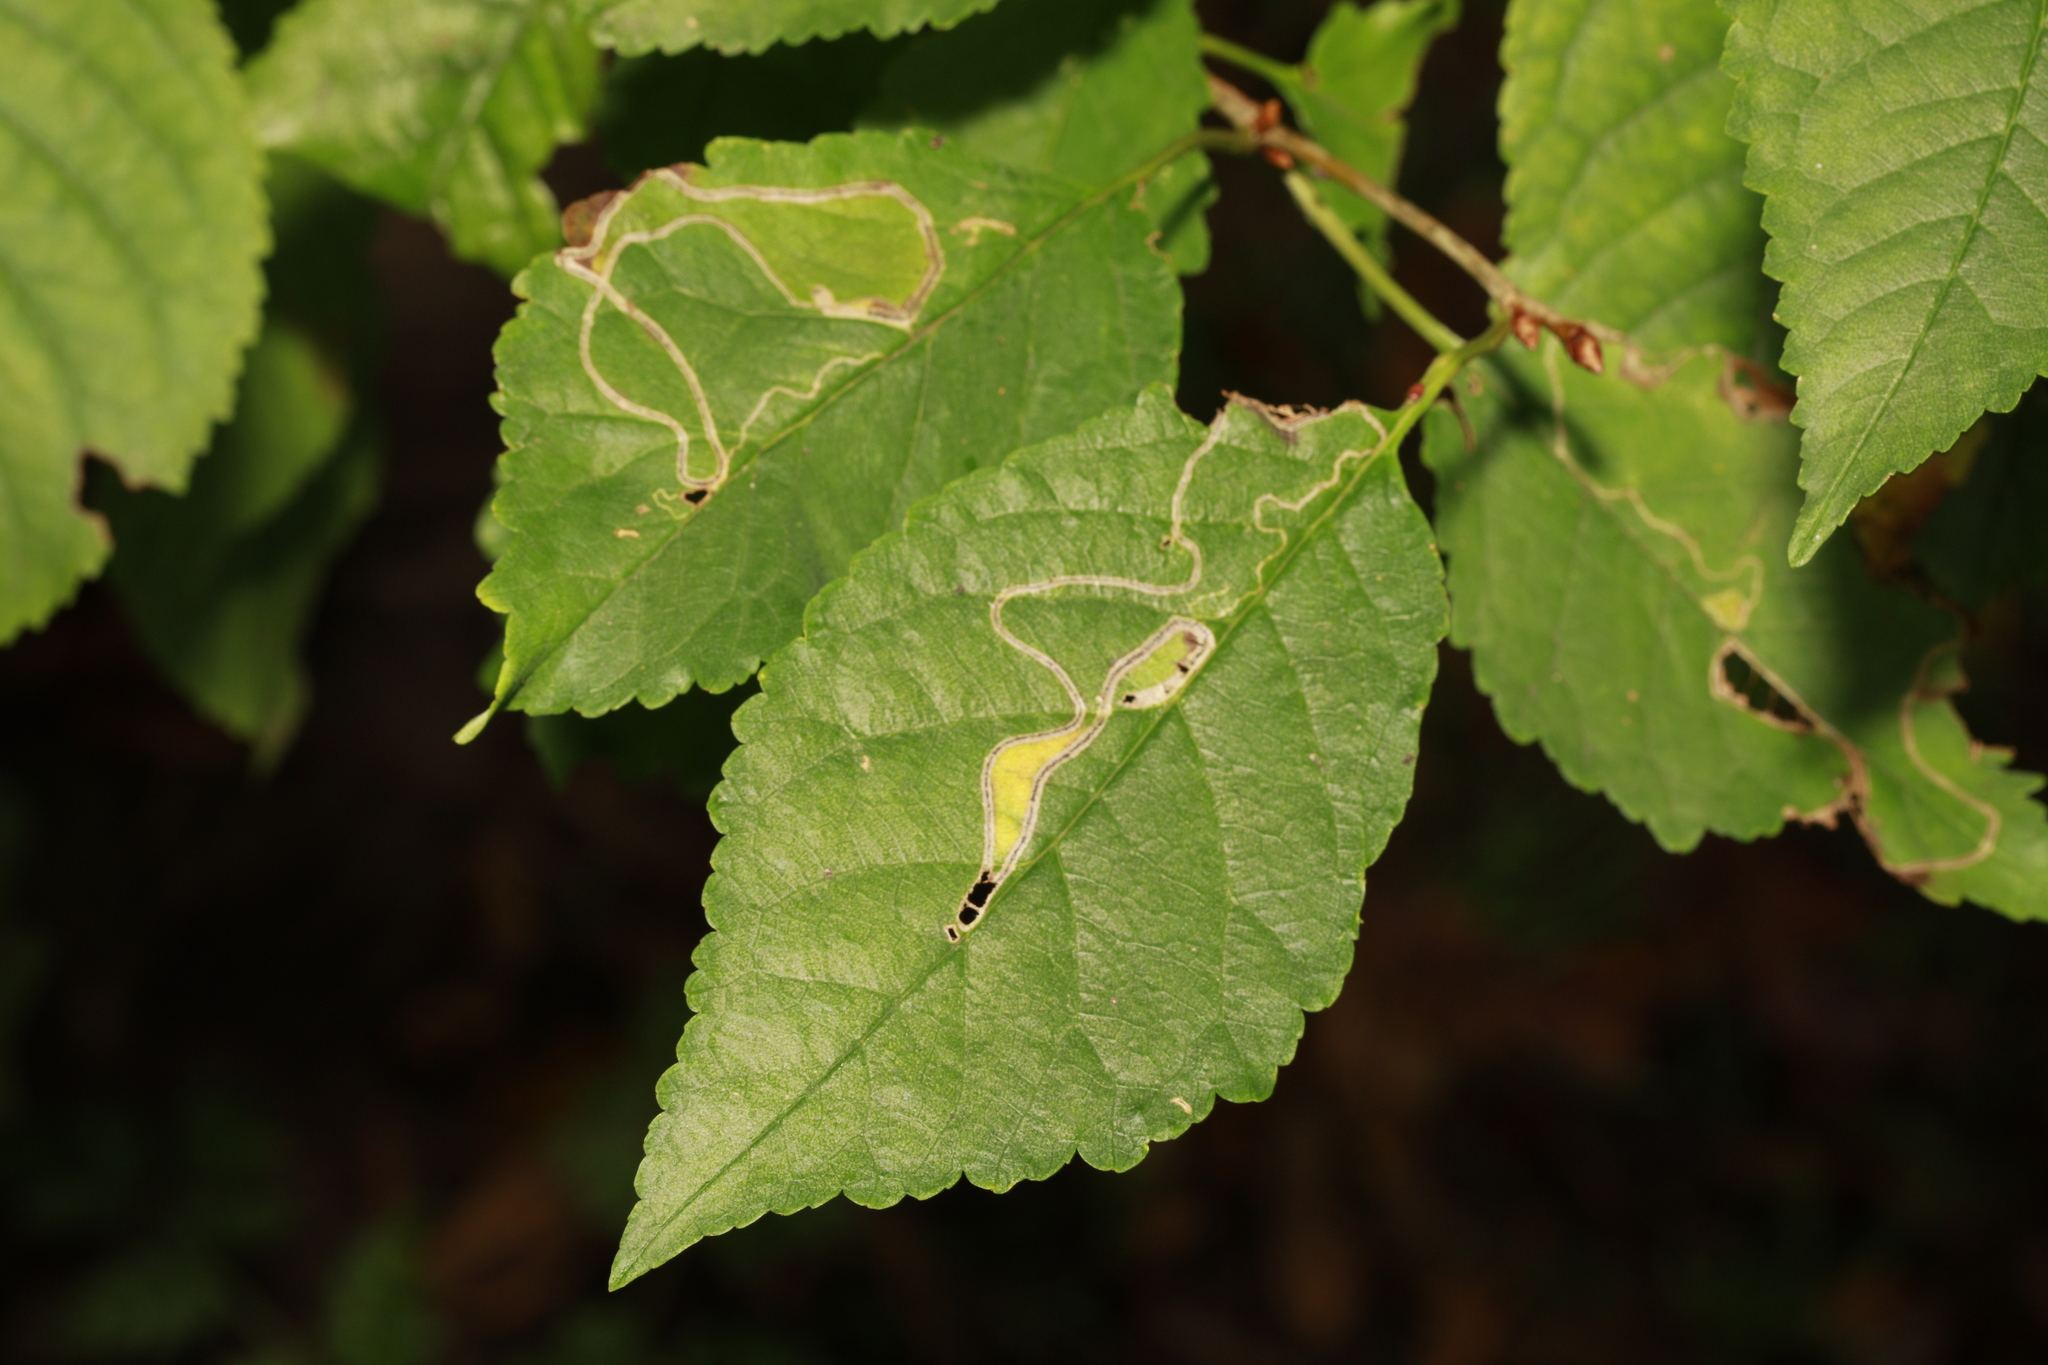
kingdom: Animalia
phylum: Arthropoda
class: Insecta
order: Lepidoptera
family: Lyonetiidae
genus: Lyonetia
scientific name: Lyonetia clerkella
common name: Apple leaf miner
